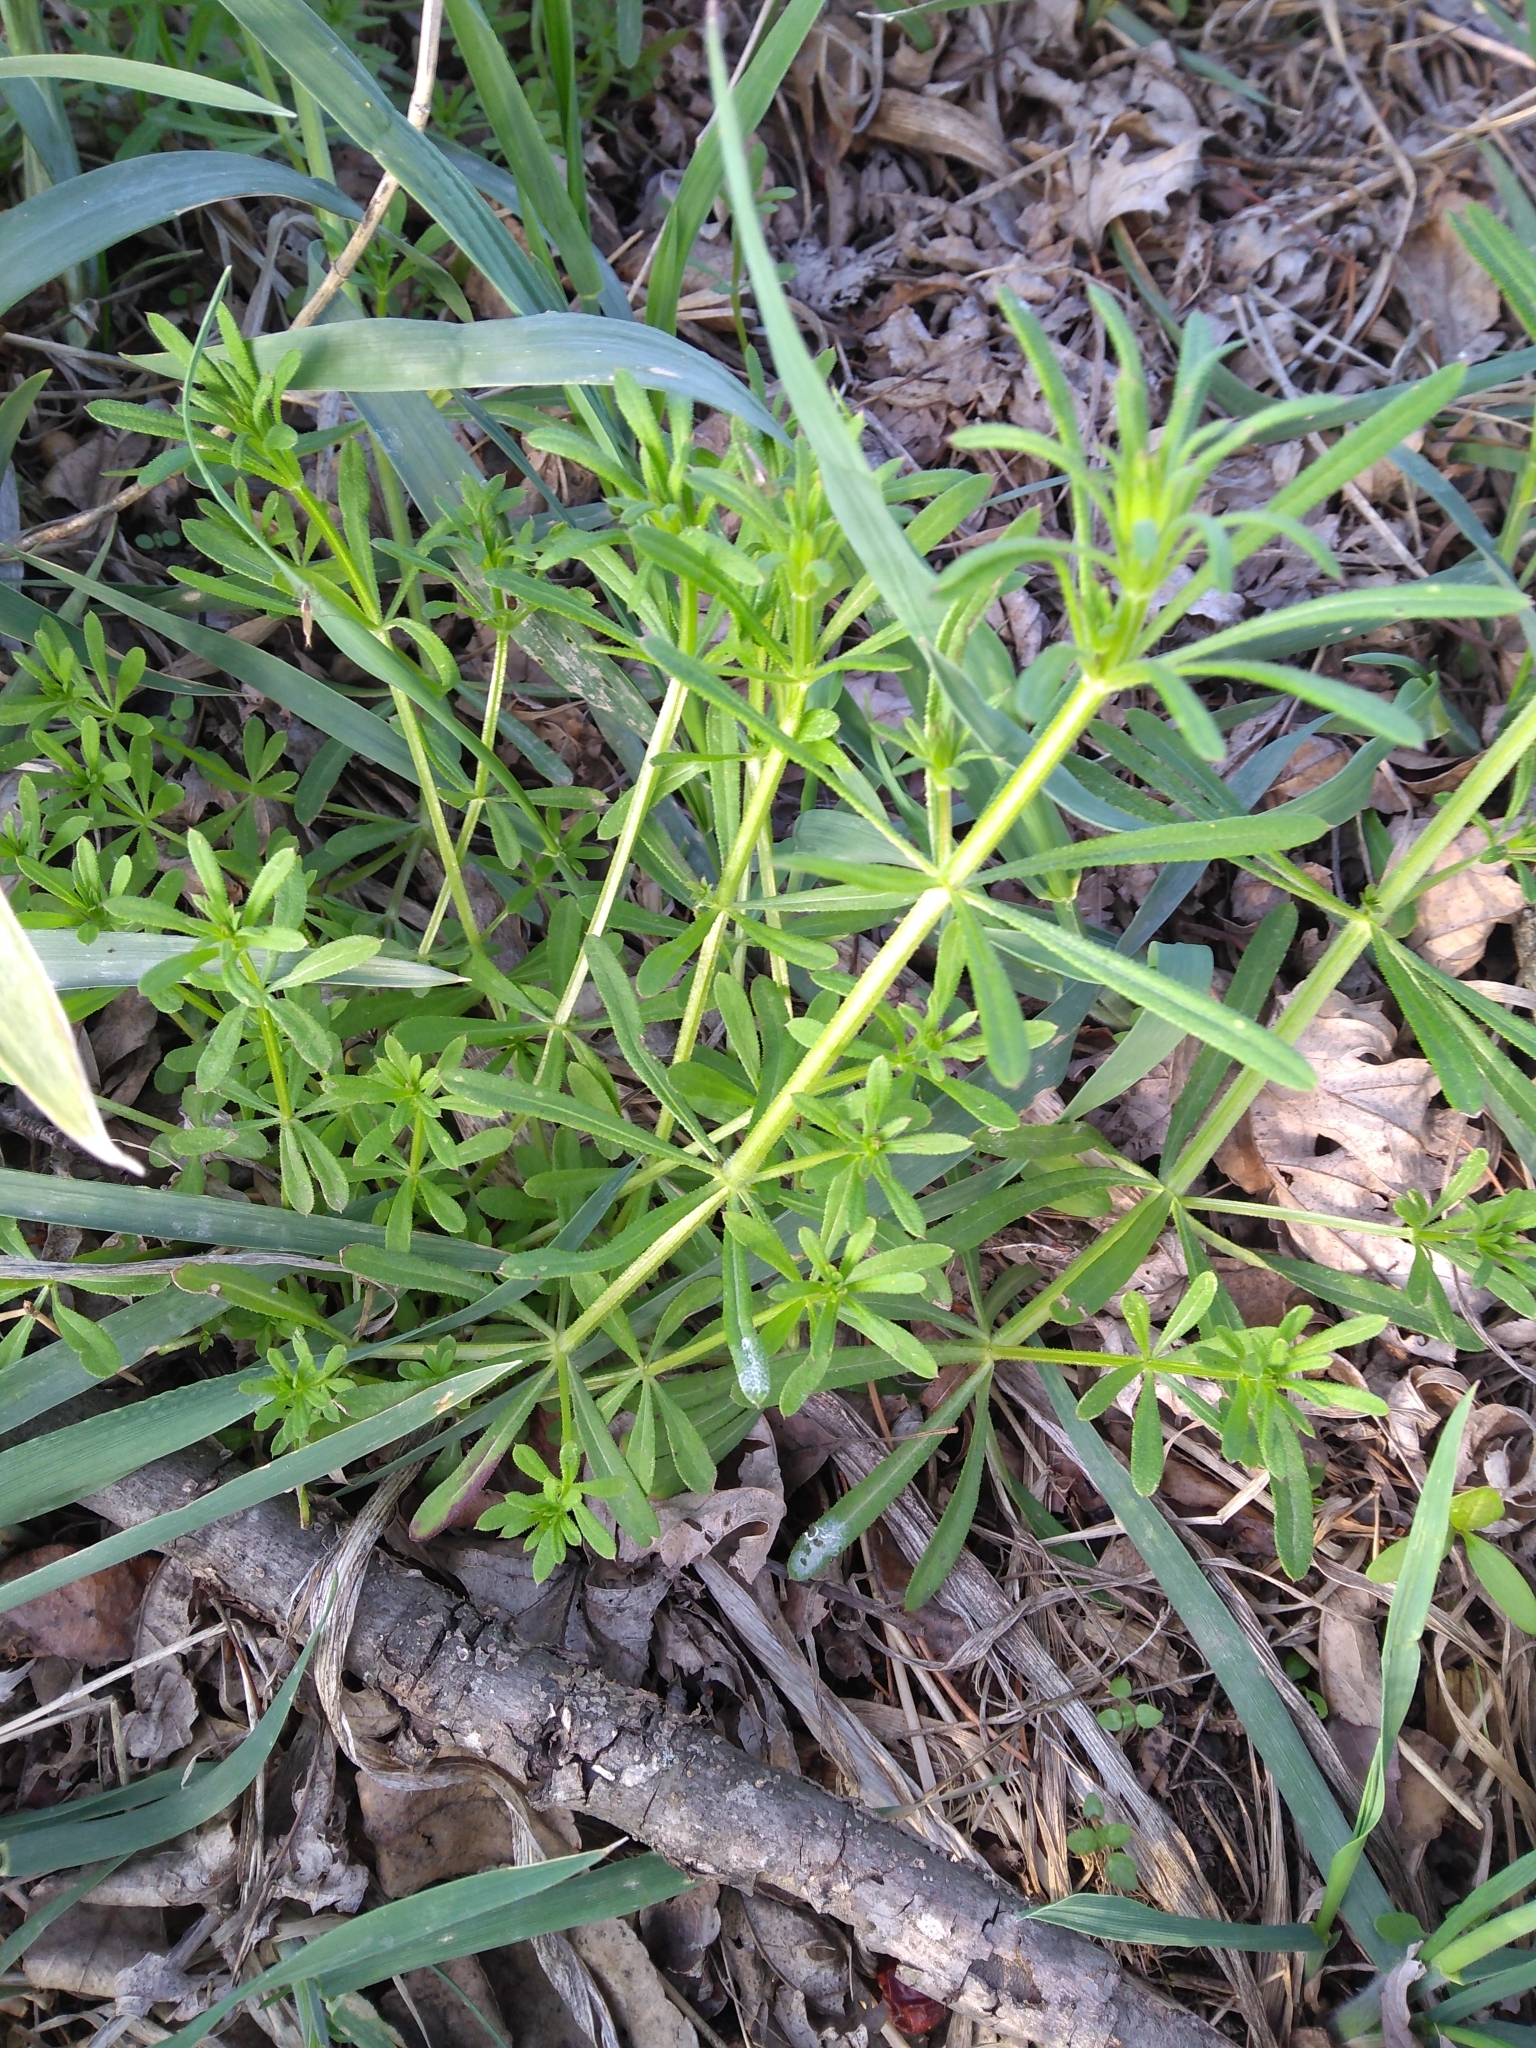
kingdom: Plantae
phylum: Tracheophyta
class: Magnoliopsida
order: Gentianales
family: Rubiaceae
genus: Galium
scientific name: Galium aparine
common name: Cleavers
